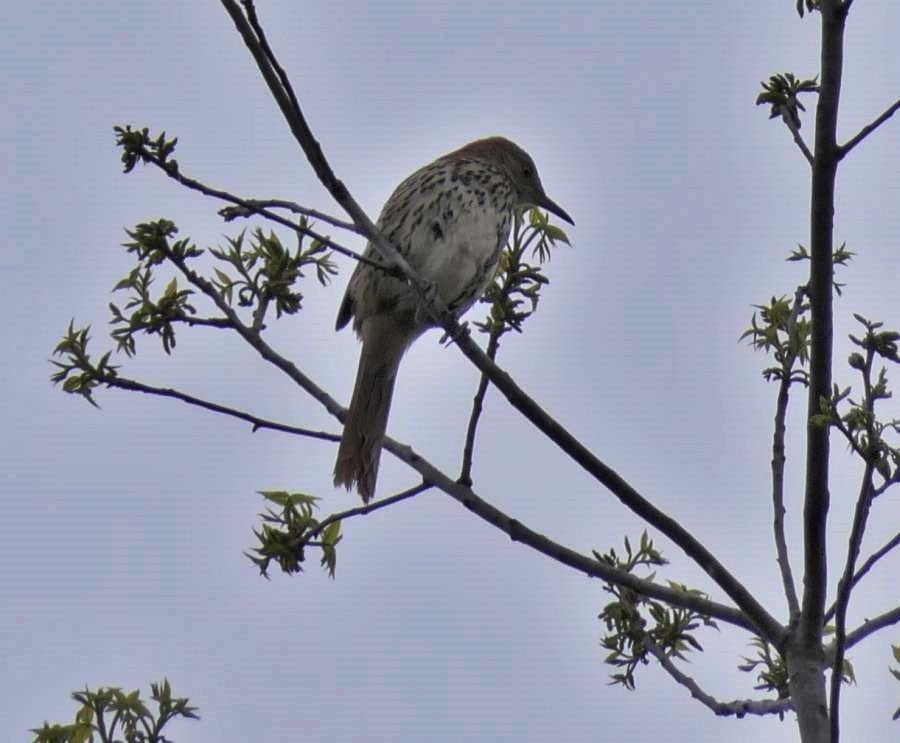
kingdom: Animalia
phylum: Chordata
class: Aves
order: Passeriformes
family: Mimidae
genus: Toxostoma
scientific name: Toxostoma rufum
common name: Brown thrasher
